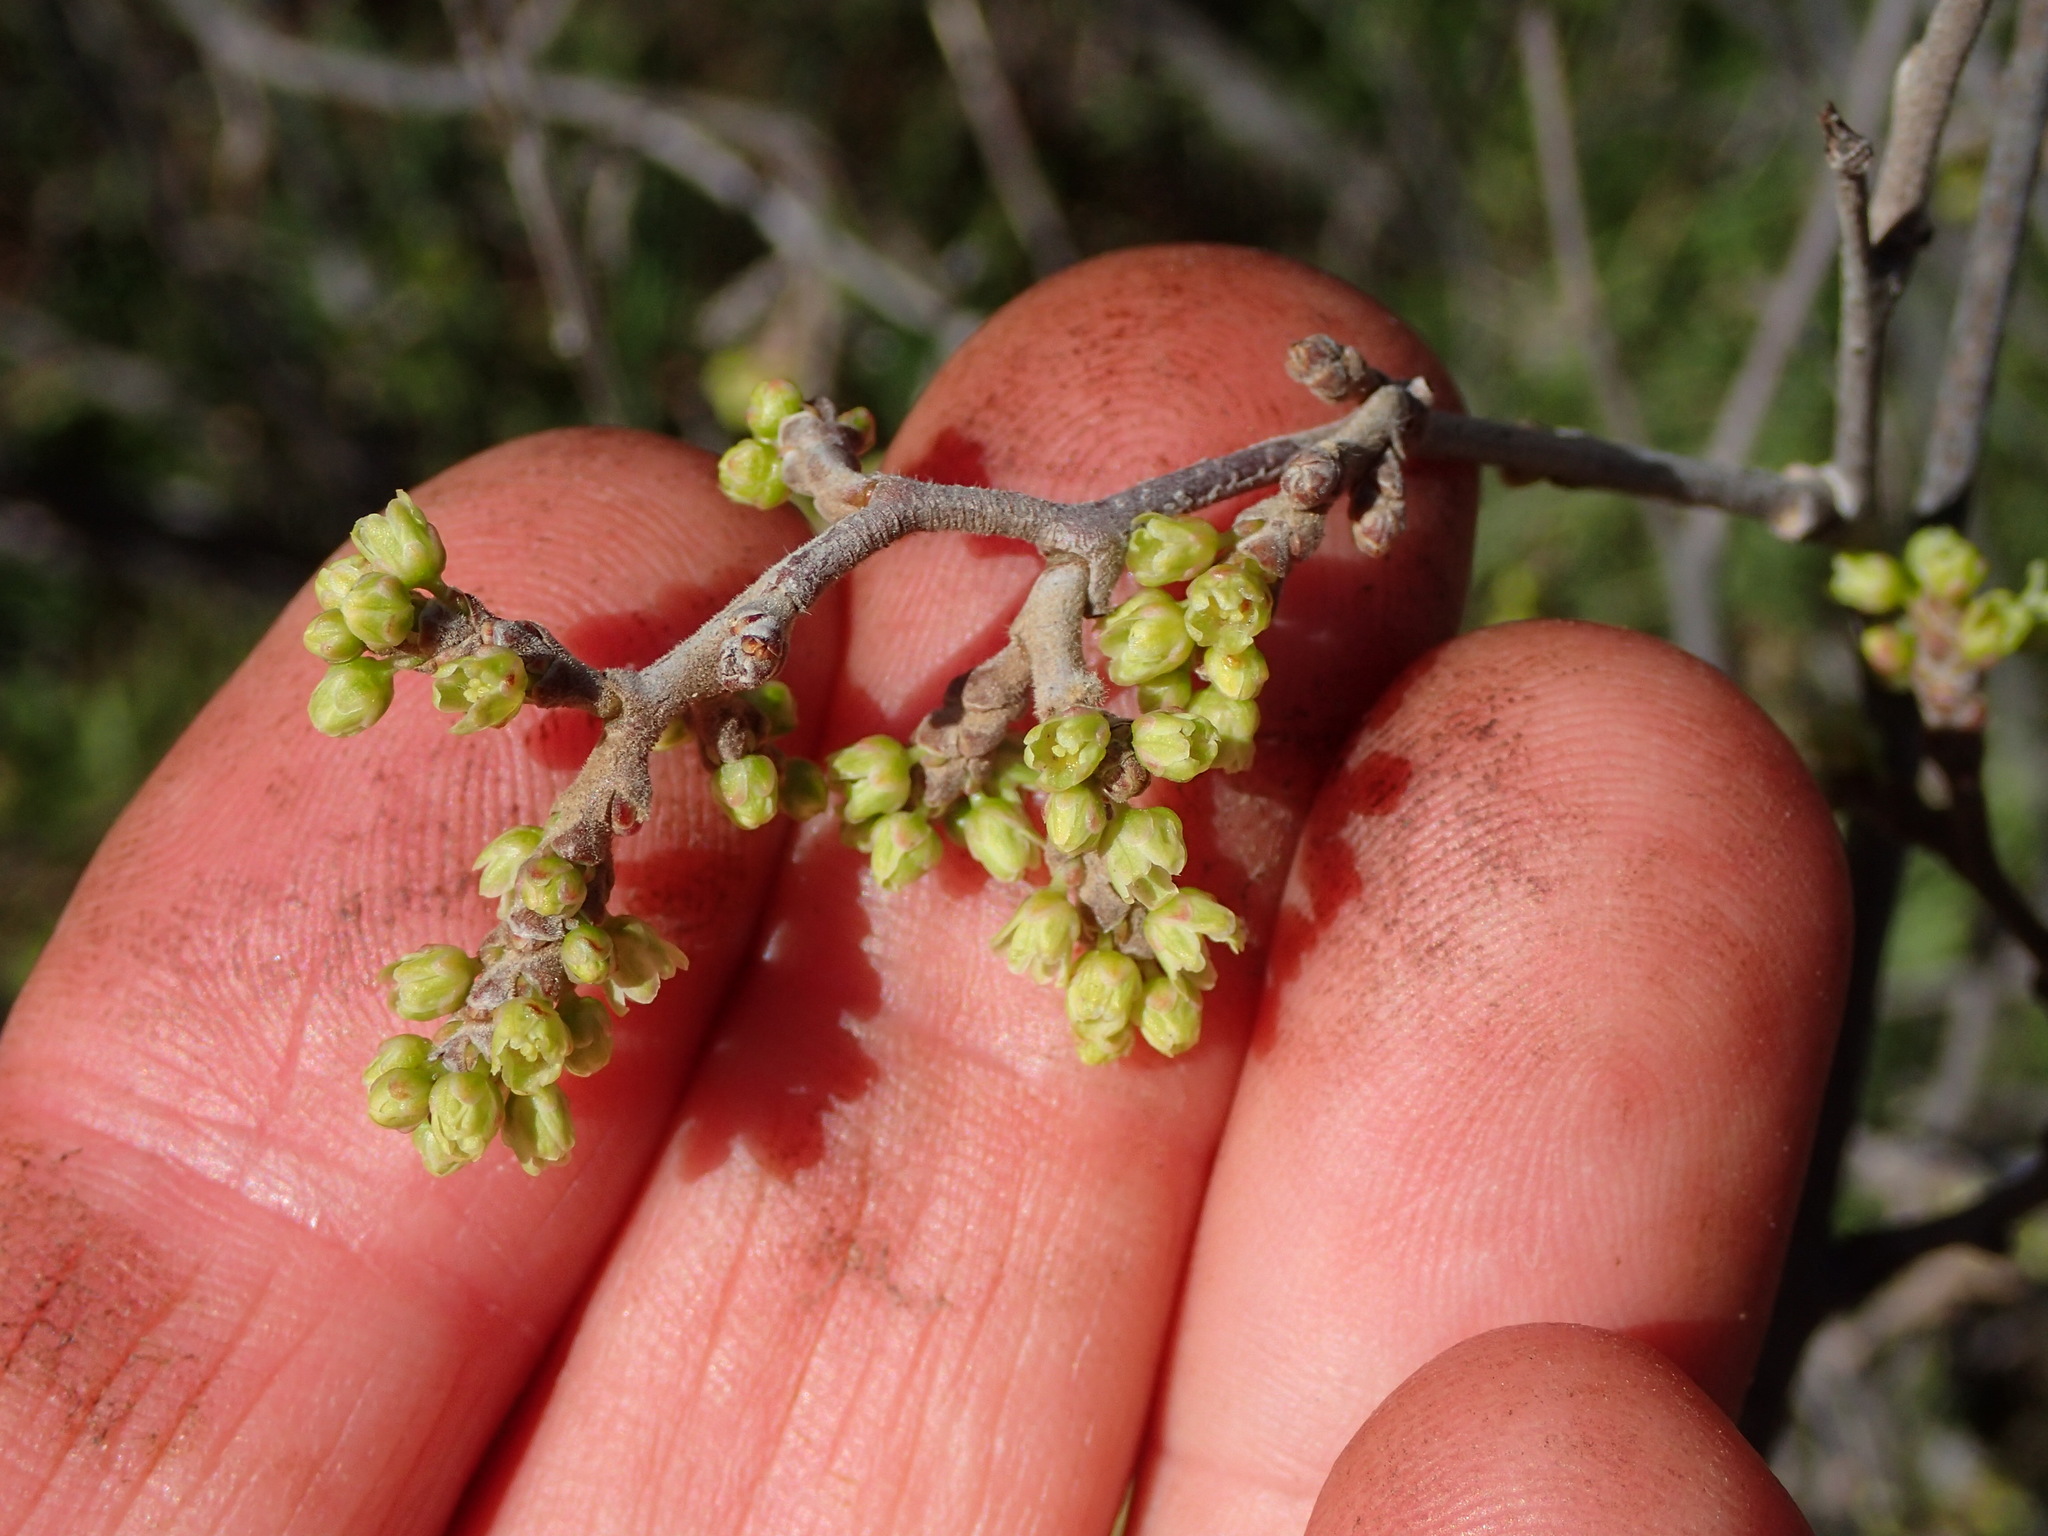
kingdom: Plantae
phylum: Tracheophyta
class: Magnoliopsida
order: Sapindales
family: Anacardiaceae
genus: Rhus
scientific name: Rhus aromatica
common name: Aromatic sumac
